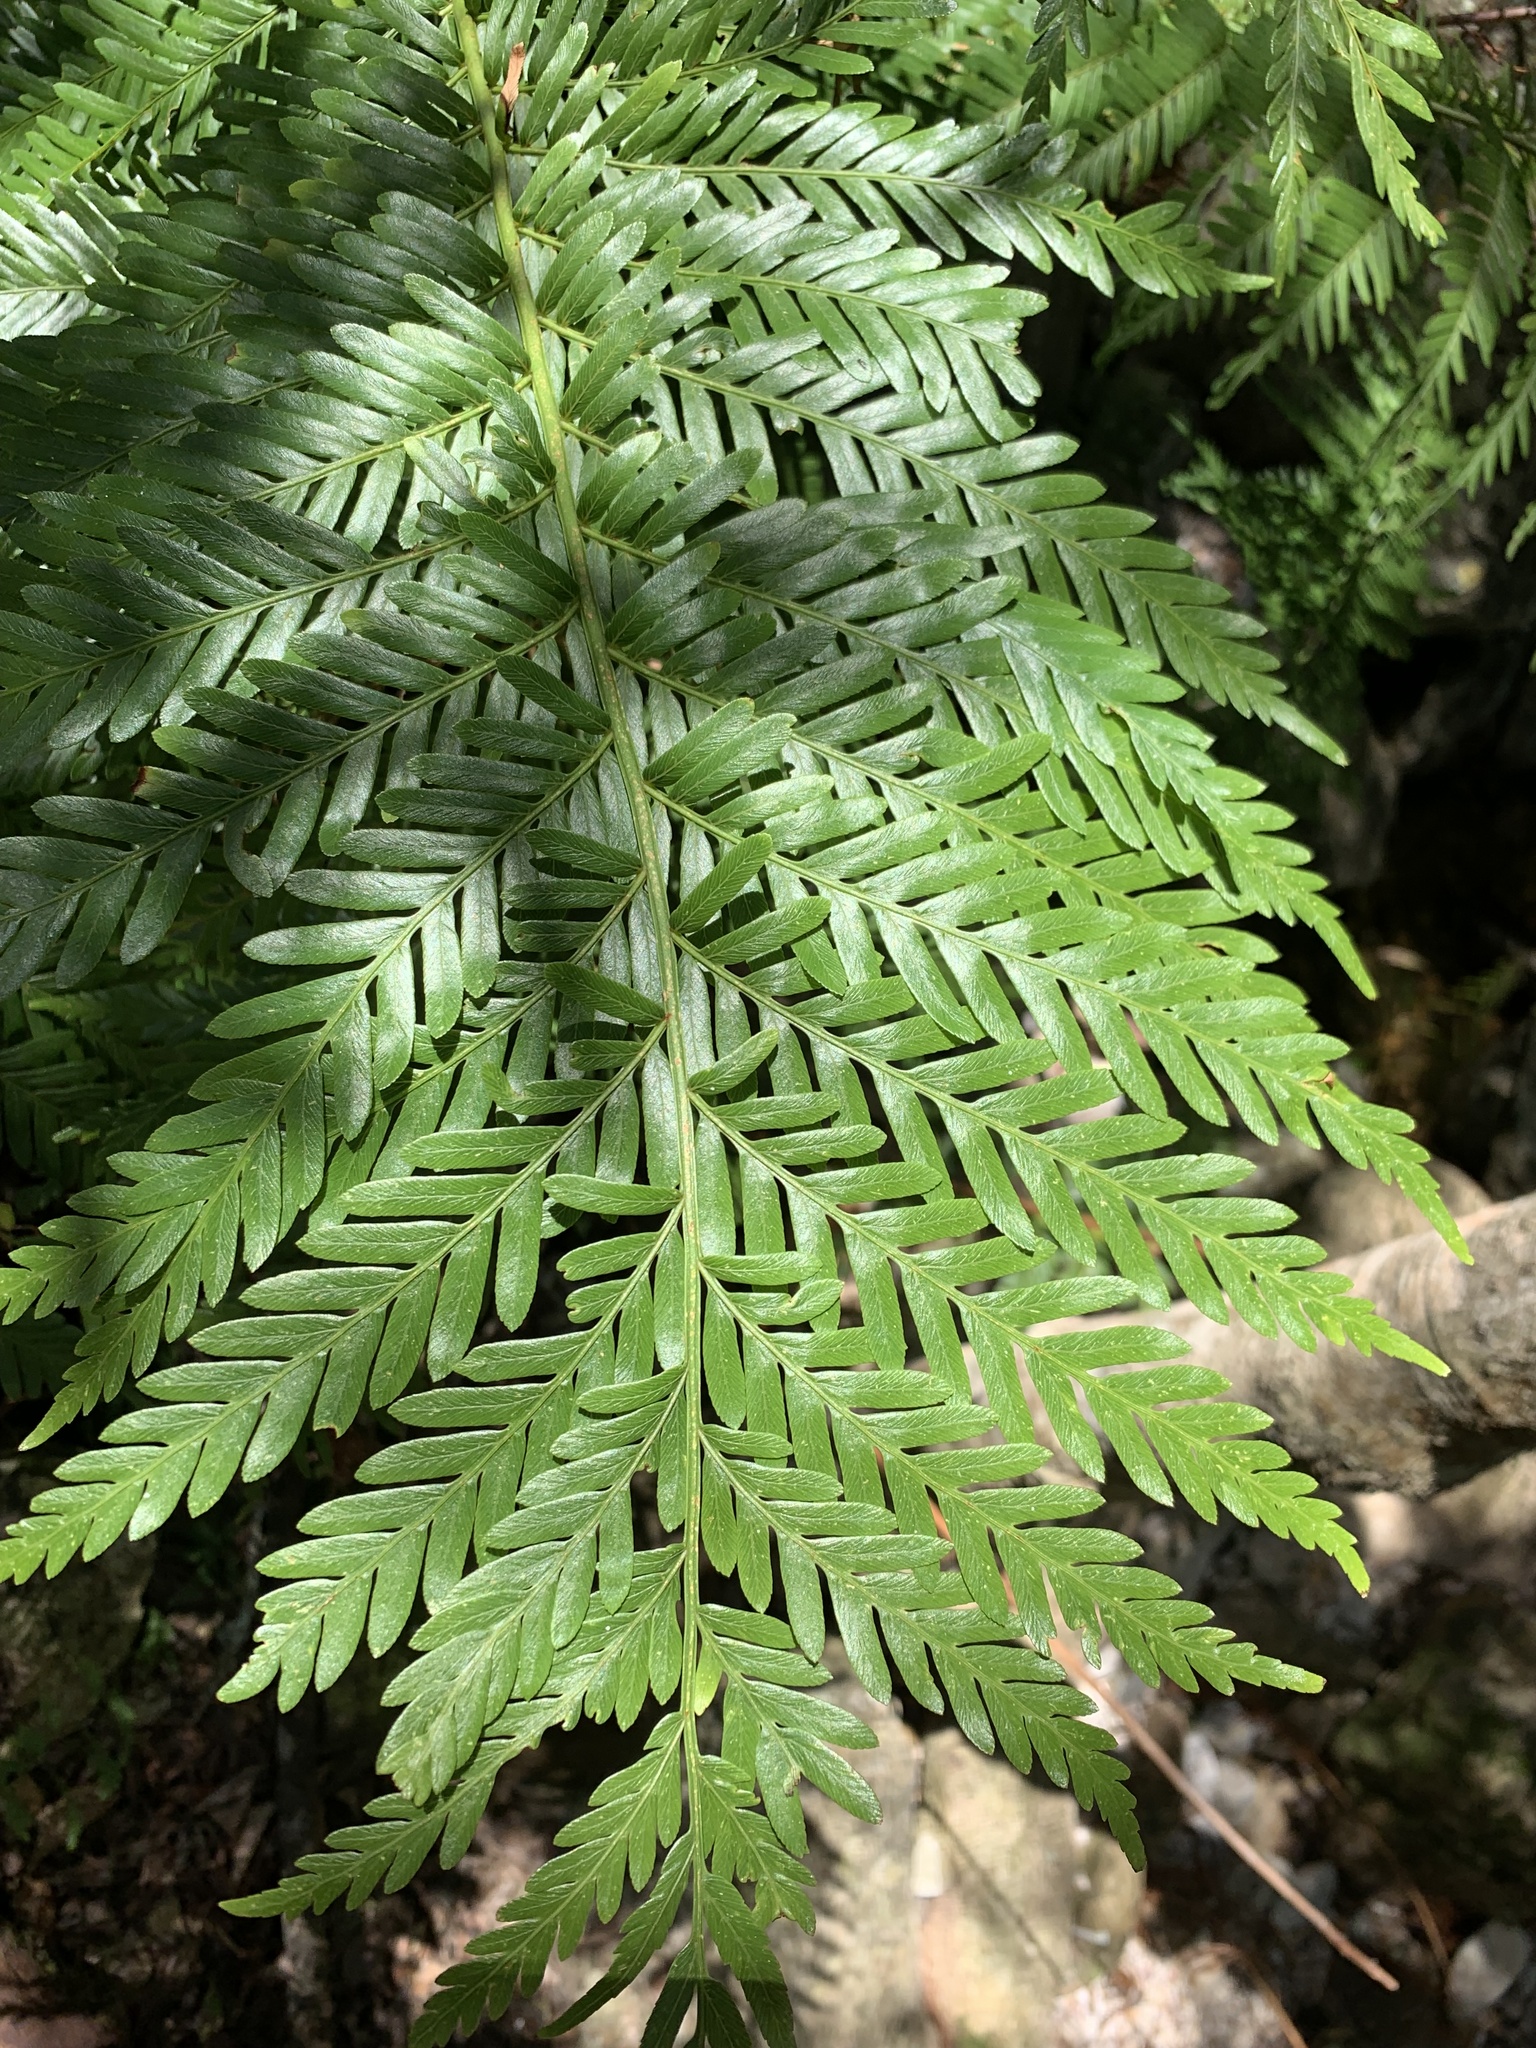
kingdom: Plantae
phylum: Tracheophyta
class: Polypodiopsida
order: Osmundales
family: Osmundaceae
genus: Todea
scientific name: Todea barbara
